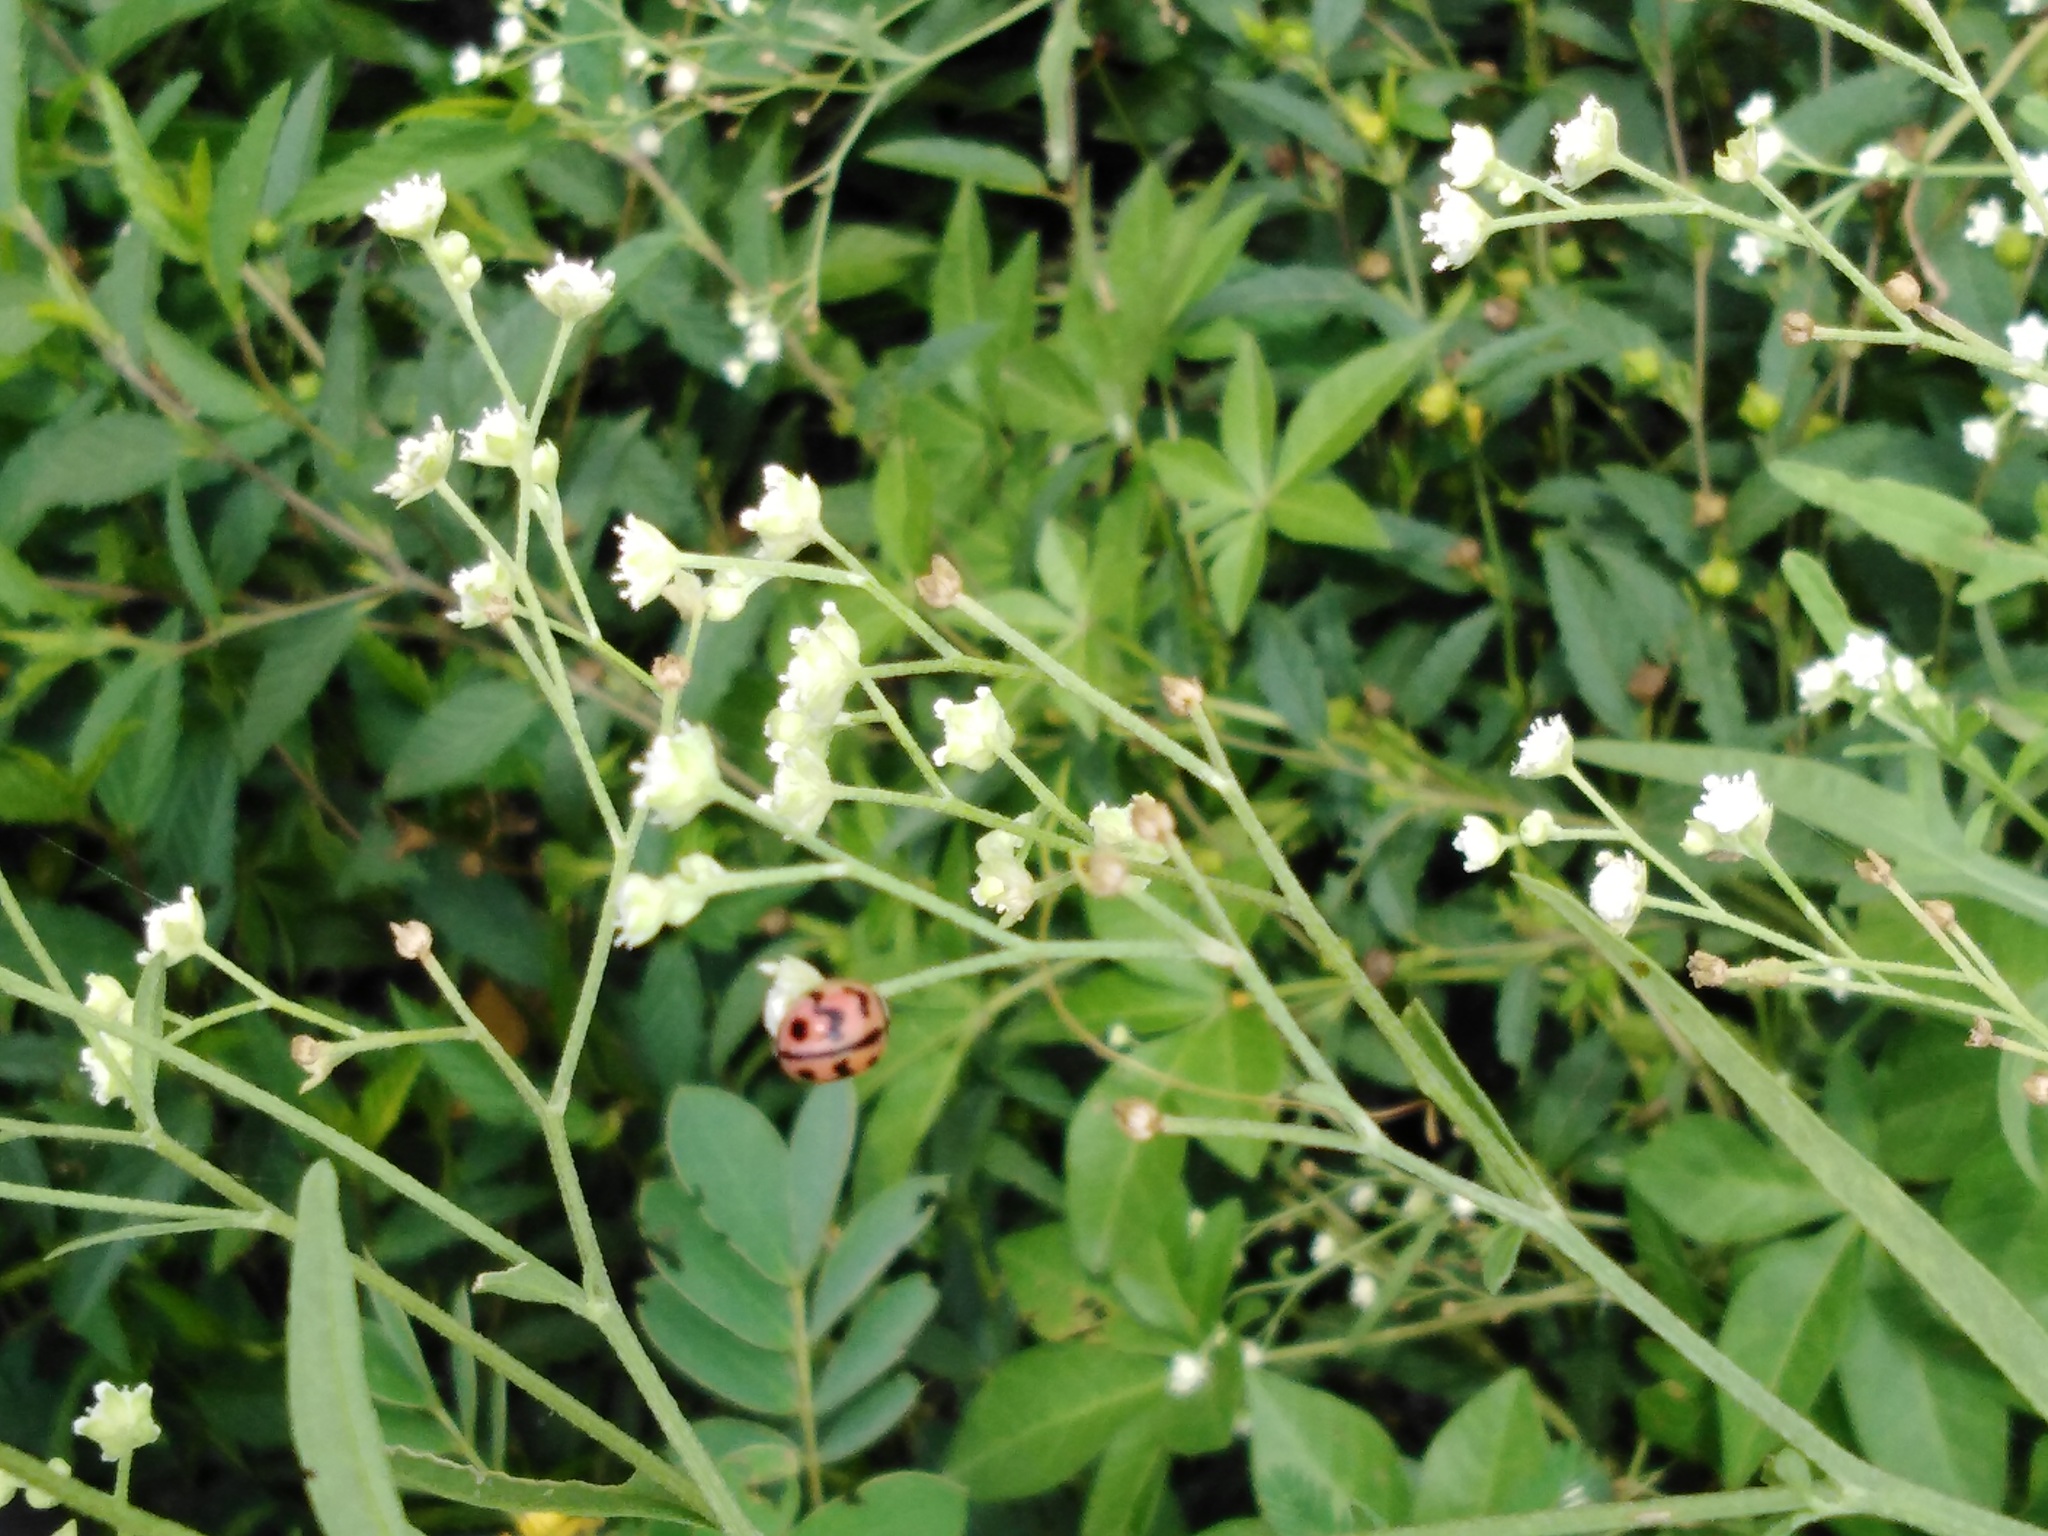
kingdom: Animalia
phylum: Arthropoda
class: Insecta
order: Coleoptera
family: Coccinellidae
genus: Cheilomenes
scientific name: Cheilomenes sexmaculata
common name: Ladybird beetle
